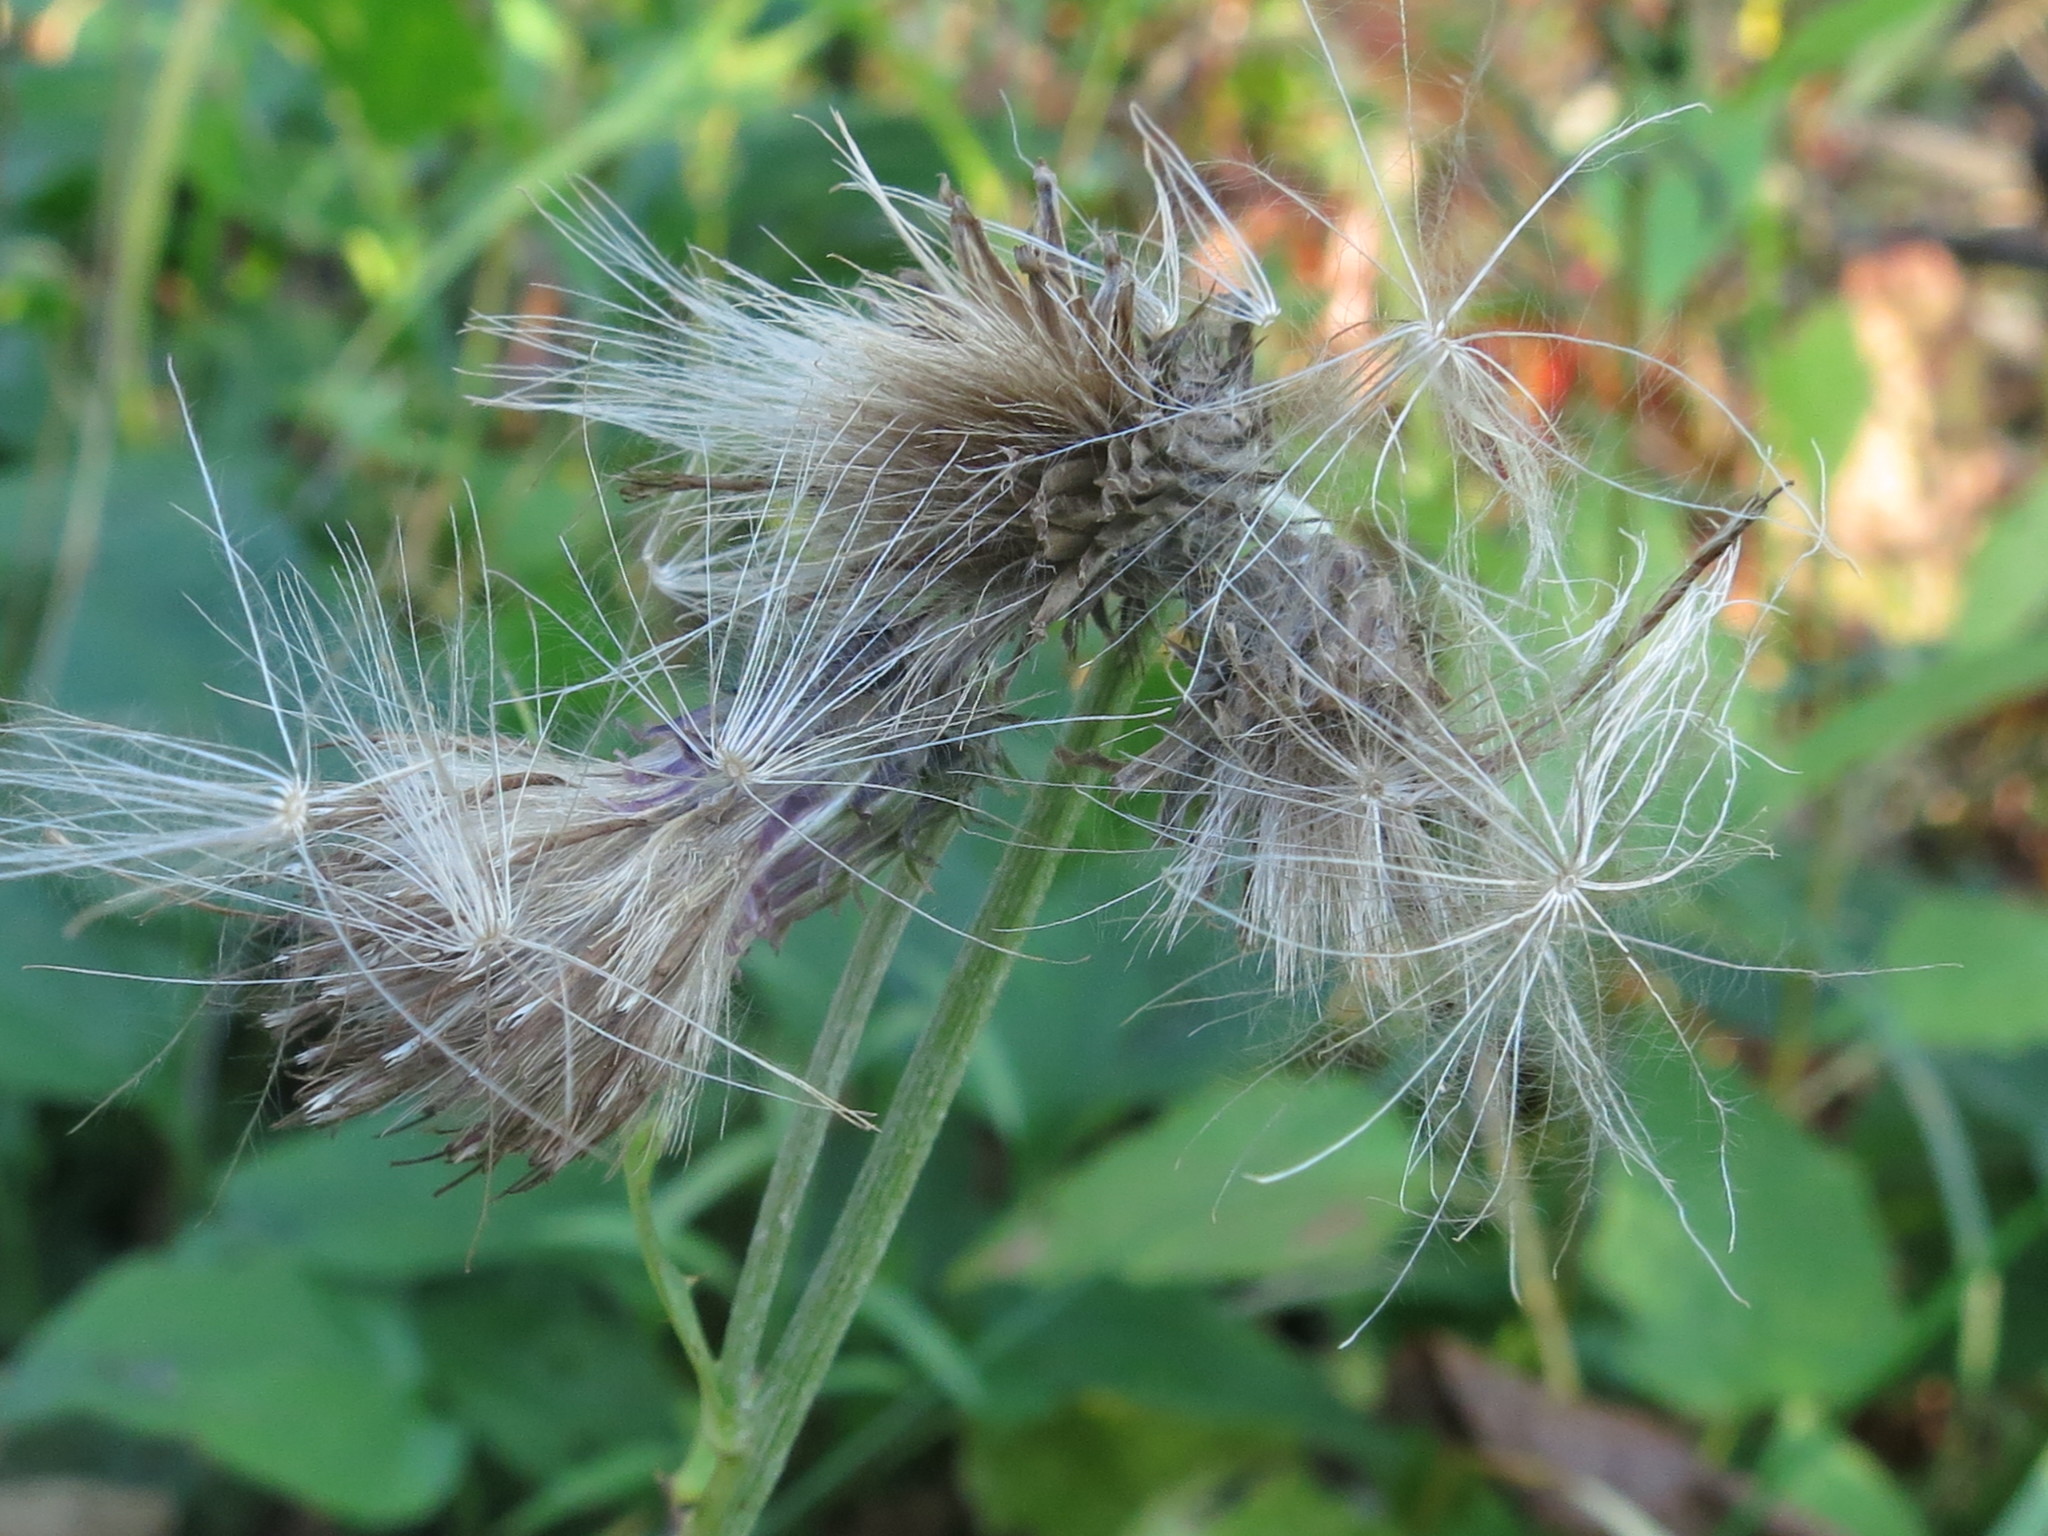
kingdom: Plantae
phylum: Tracheophyta
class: Magnoliopsida
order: Asterales
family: Asteraceae
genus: Cirsium
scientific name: Cirsium pendulum
